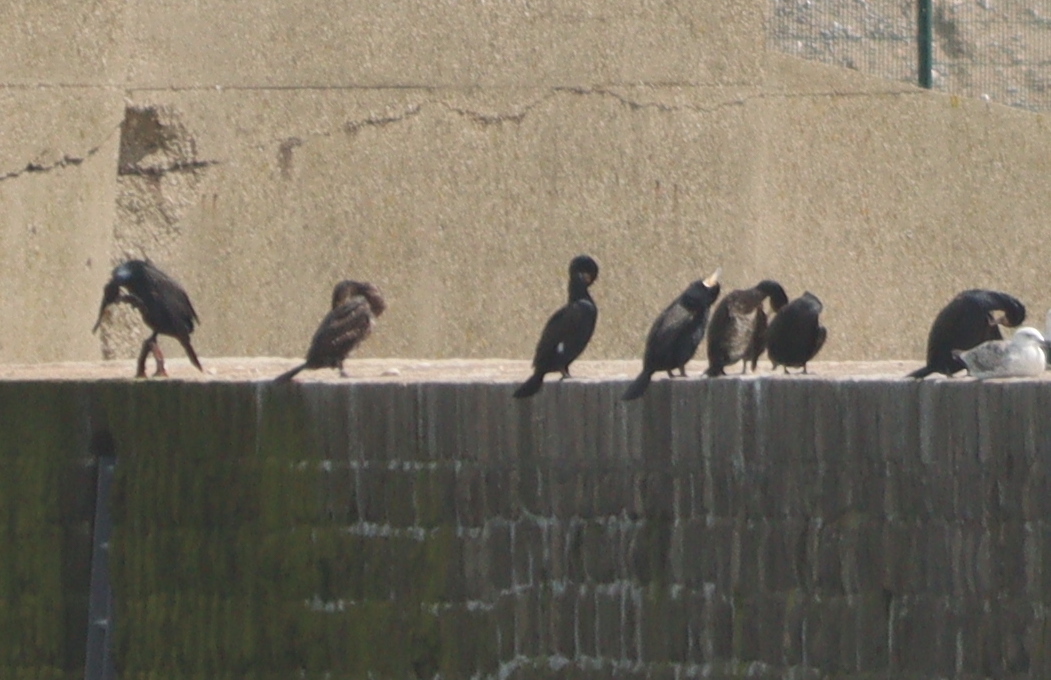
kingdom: Animalia
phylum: Chordata
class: Aves
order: Suliformes
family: Phalacrocoracidae
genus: Phalacrocorax
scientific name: Phalacrocorax carbo
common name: Great cormorant
